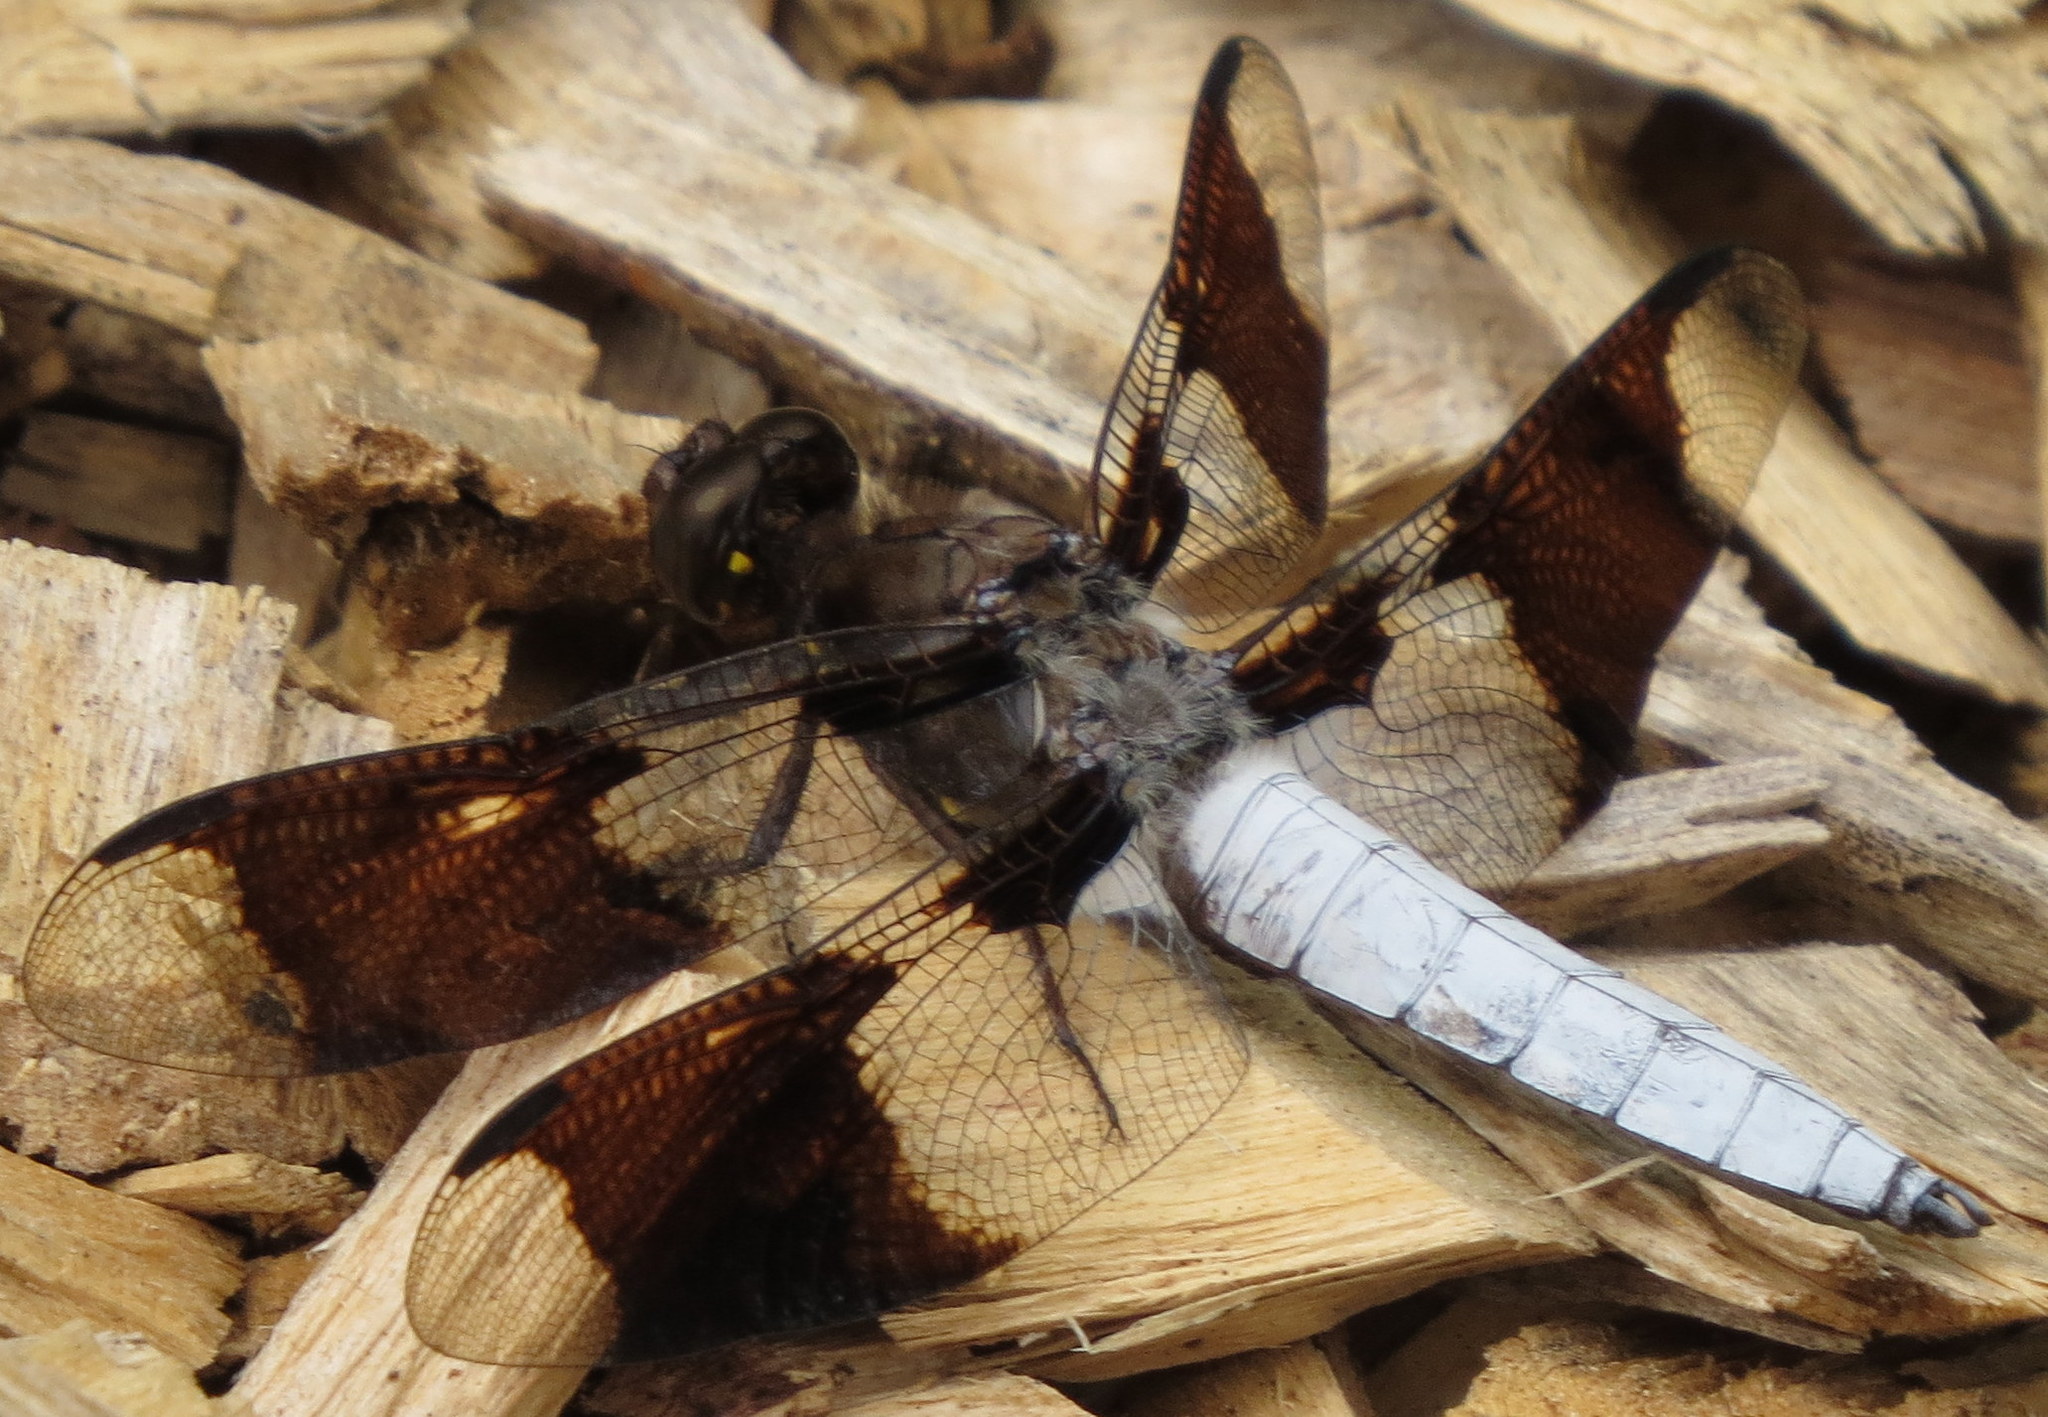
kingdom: Animalia
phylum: Arthropoda
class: Insecta
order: Odonata
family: Libellulidae
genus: Plathemis
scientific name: Plathemis lydia
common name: Common whitetail
